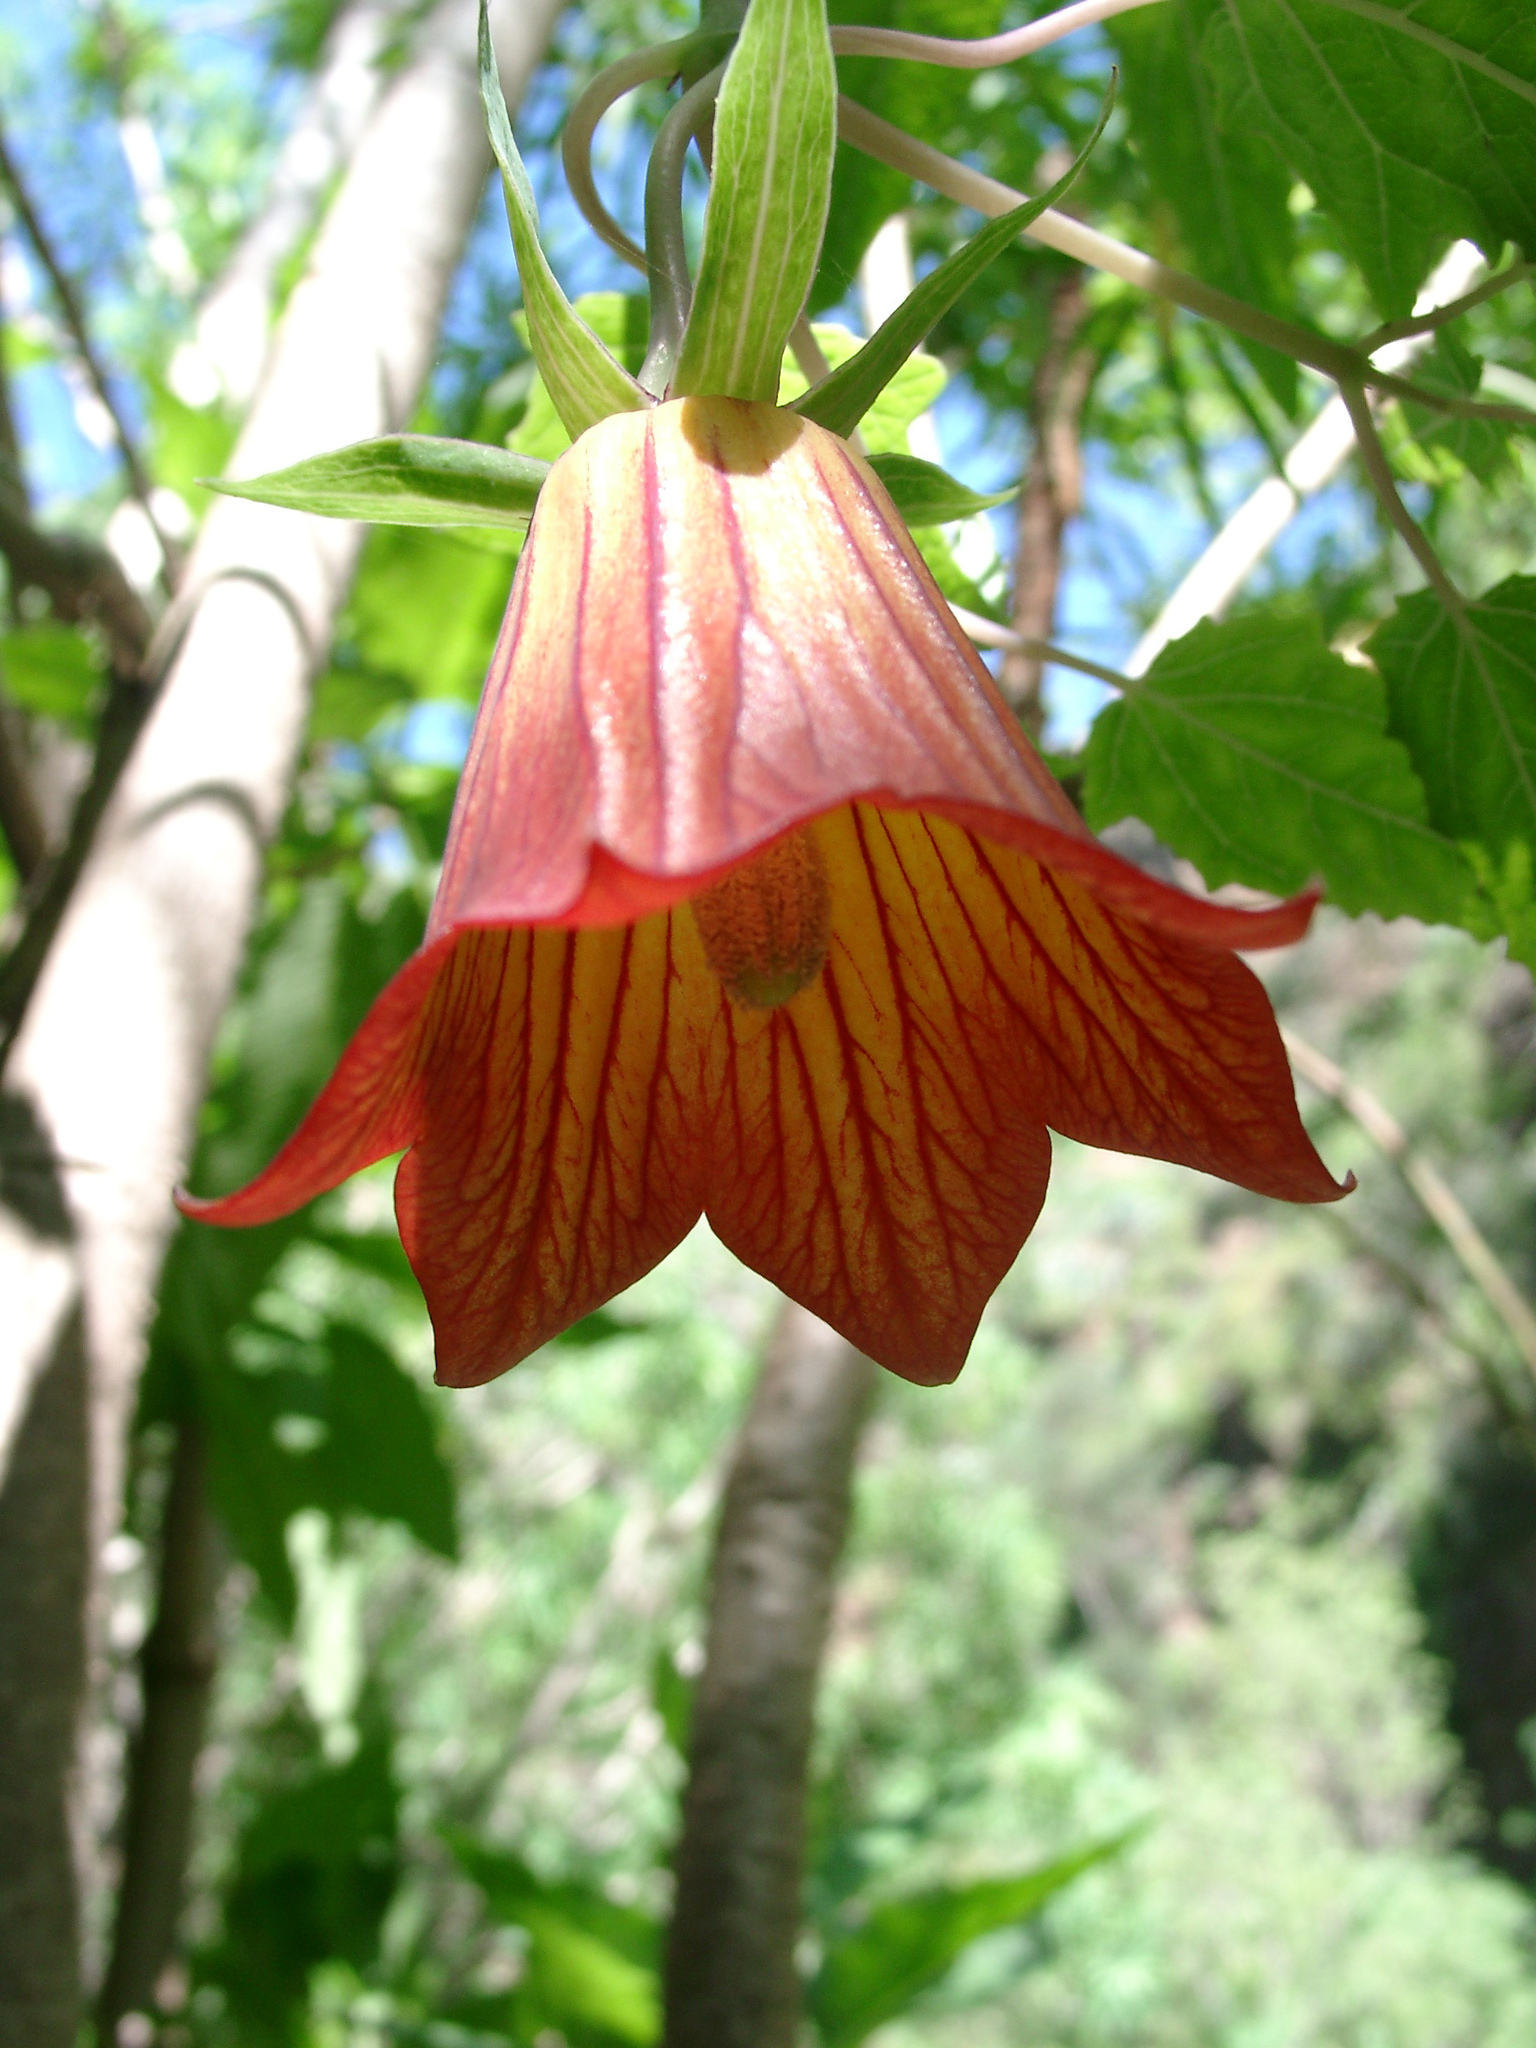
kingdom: Plantae
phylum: Tracheophyta
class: Magnoliopsida
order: Asterales
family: Campanulaceae
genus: Canarina
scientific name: Canarina canariensis
